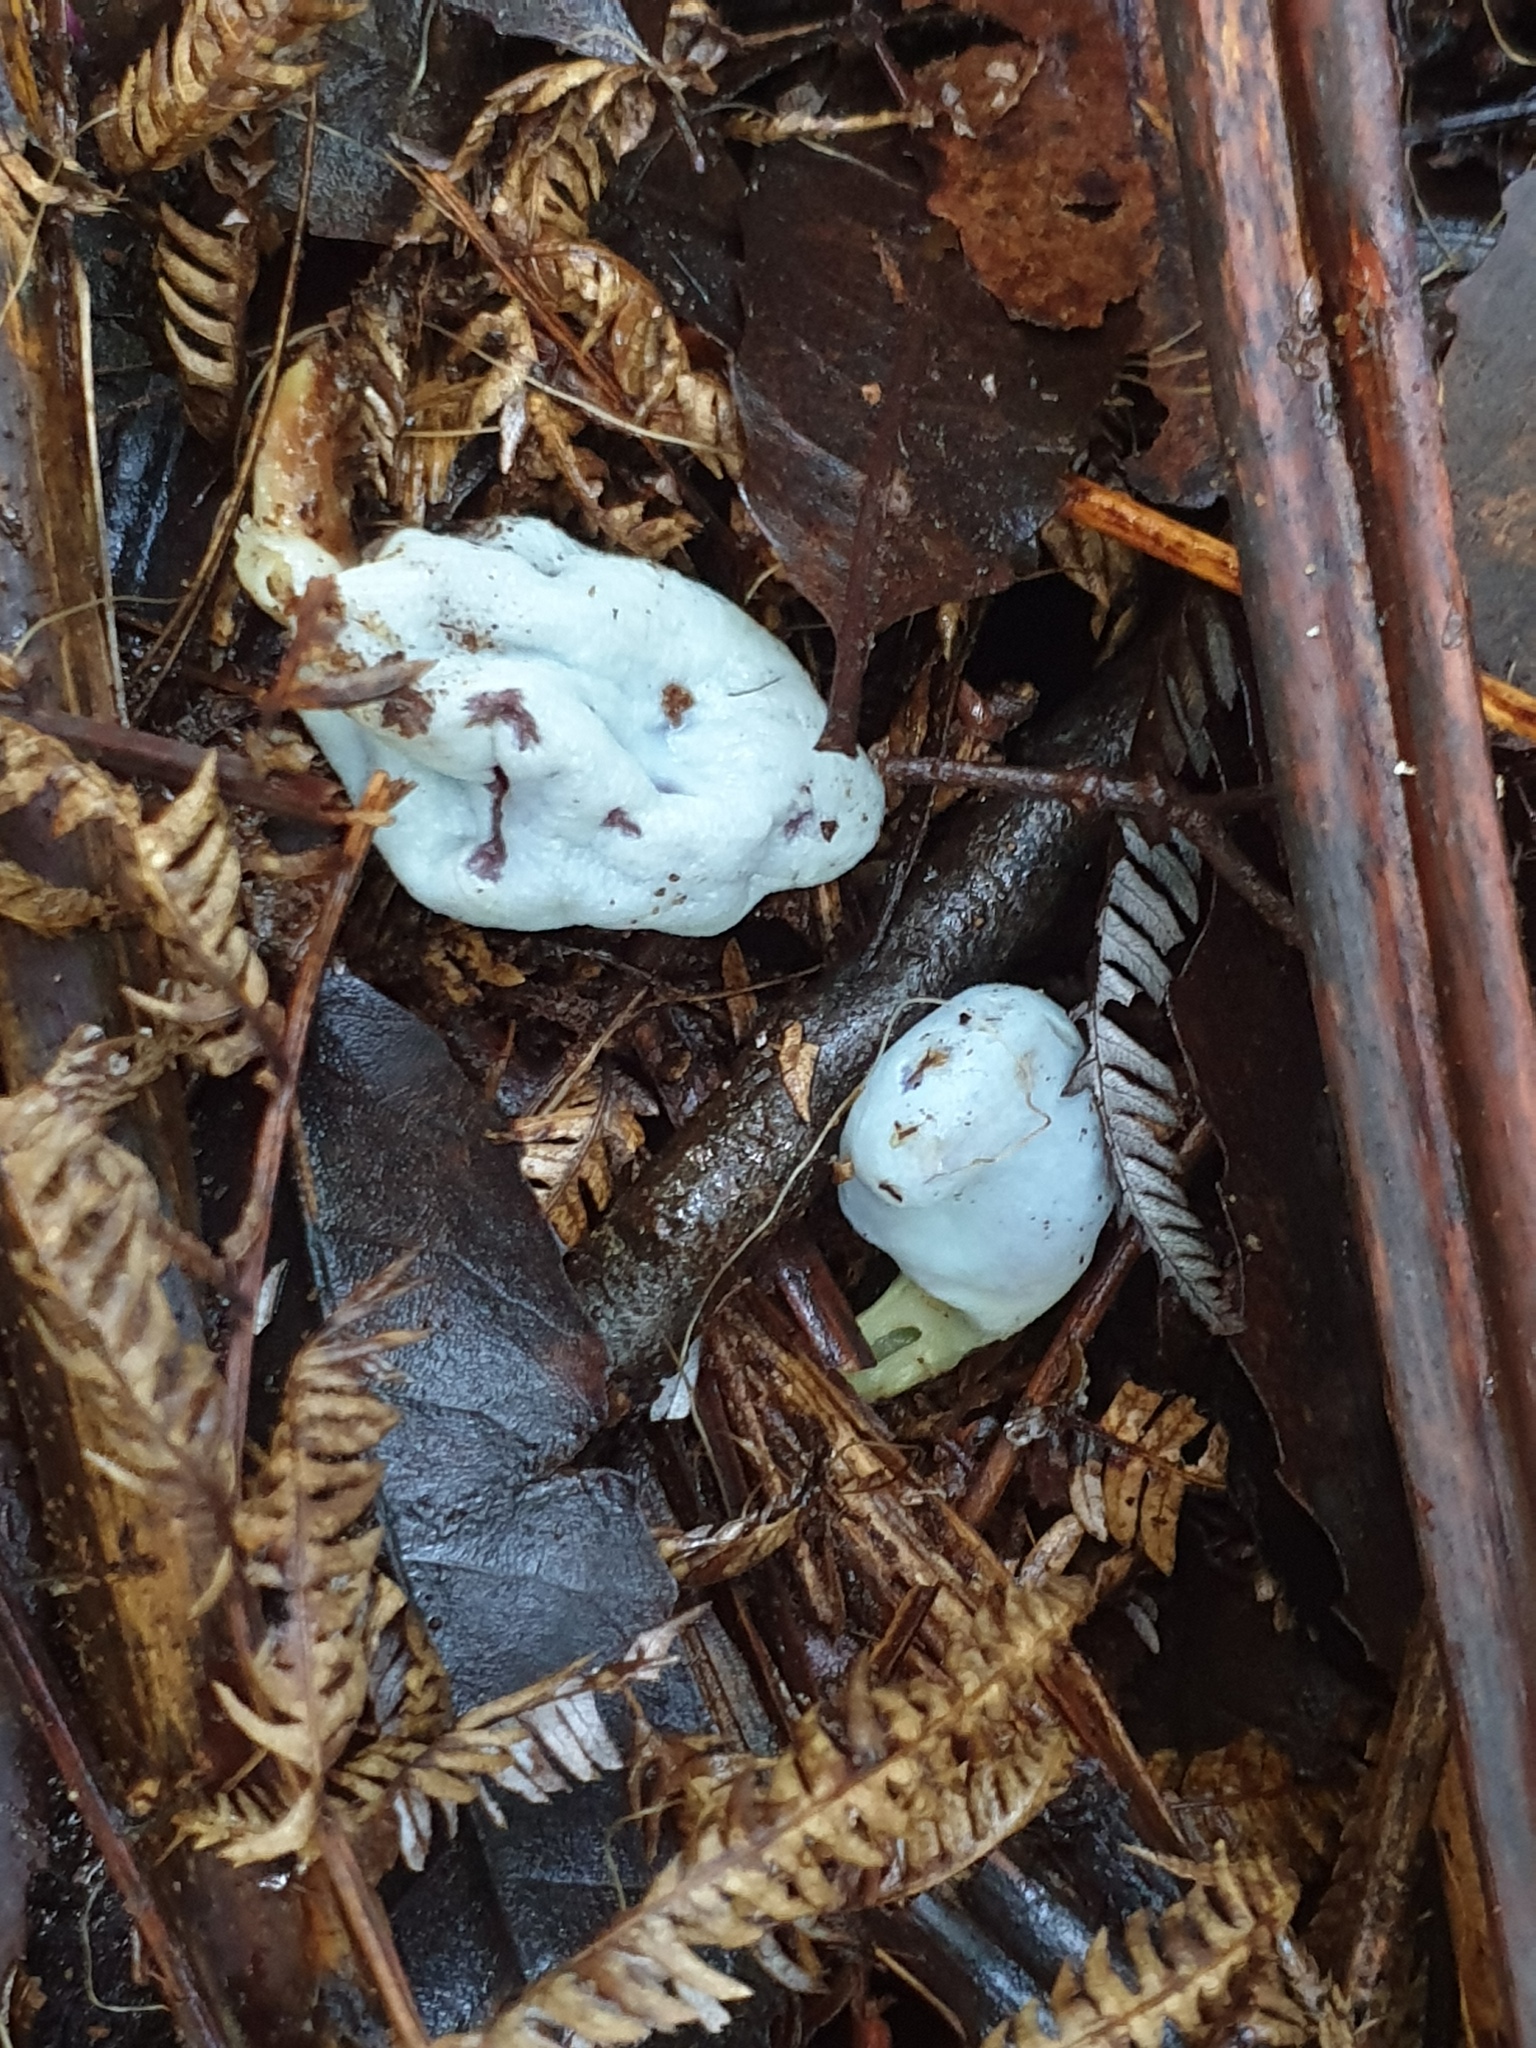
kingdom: Fungi
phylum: Basidiomycota
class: Agaricomycetes
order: Agaricales
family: Agaricaceae
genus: Clavogaster
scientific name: Clavogaster virescens
